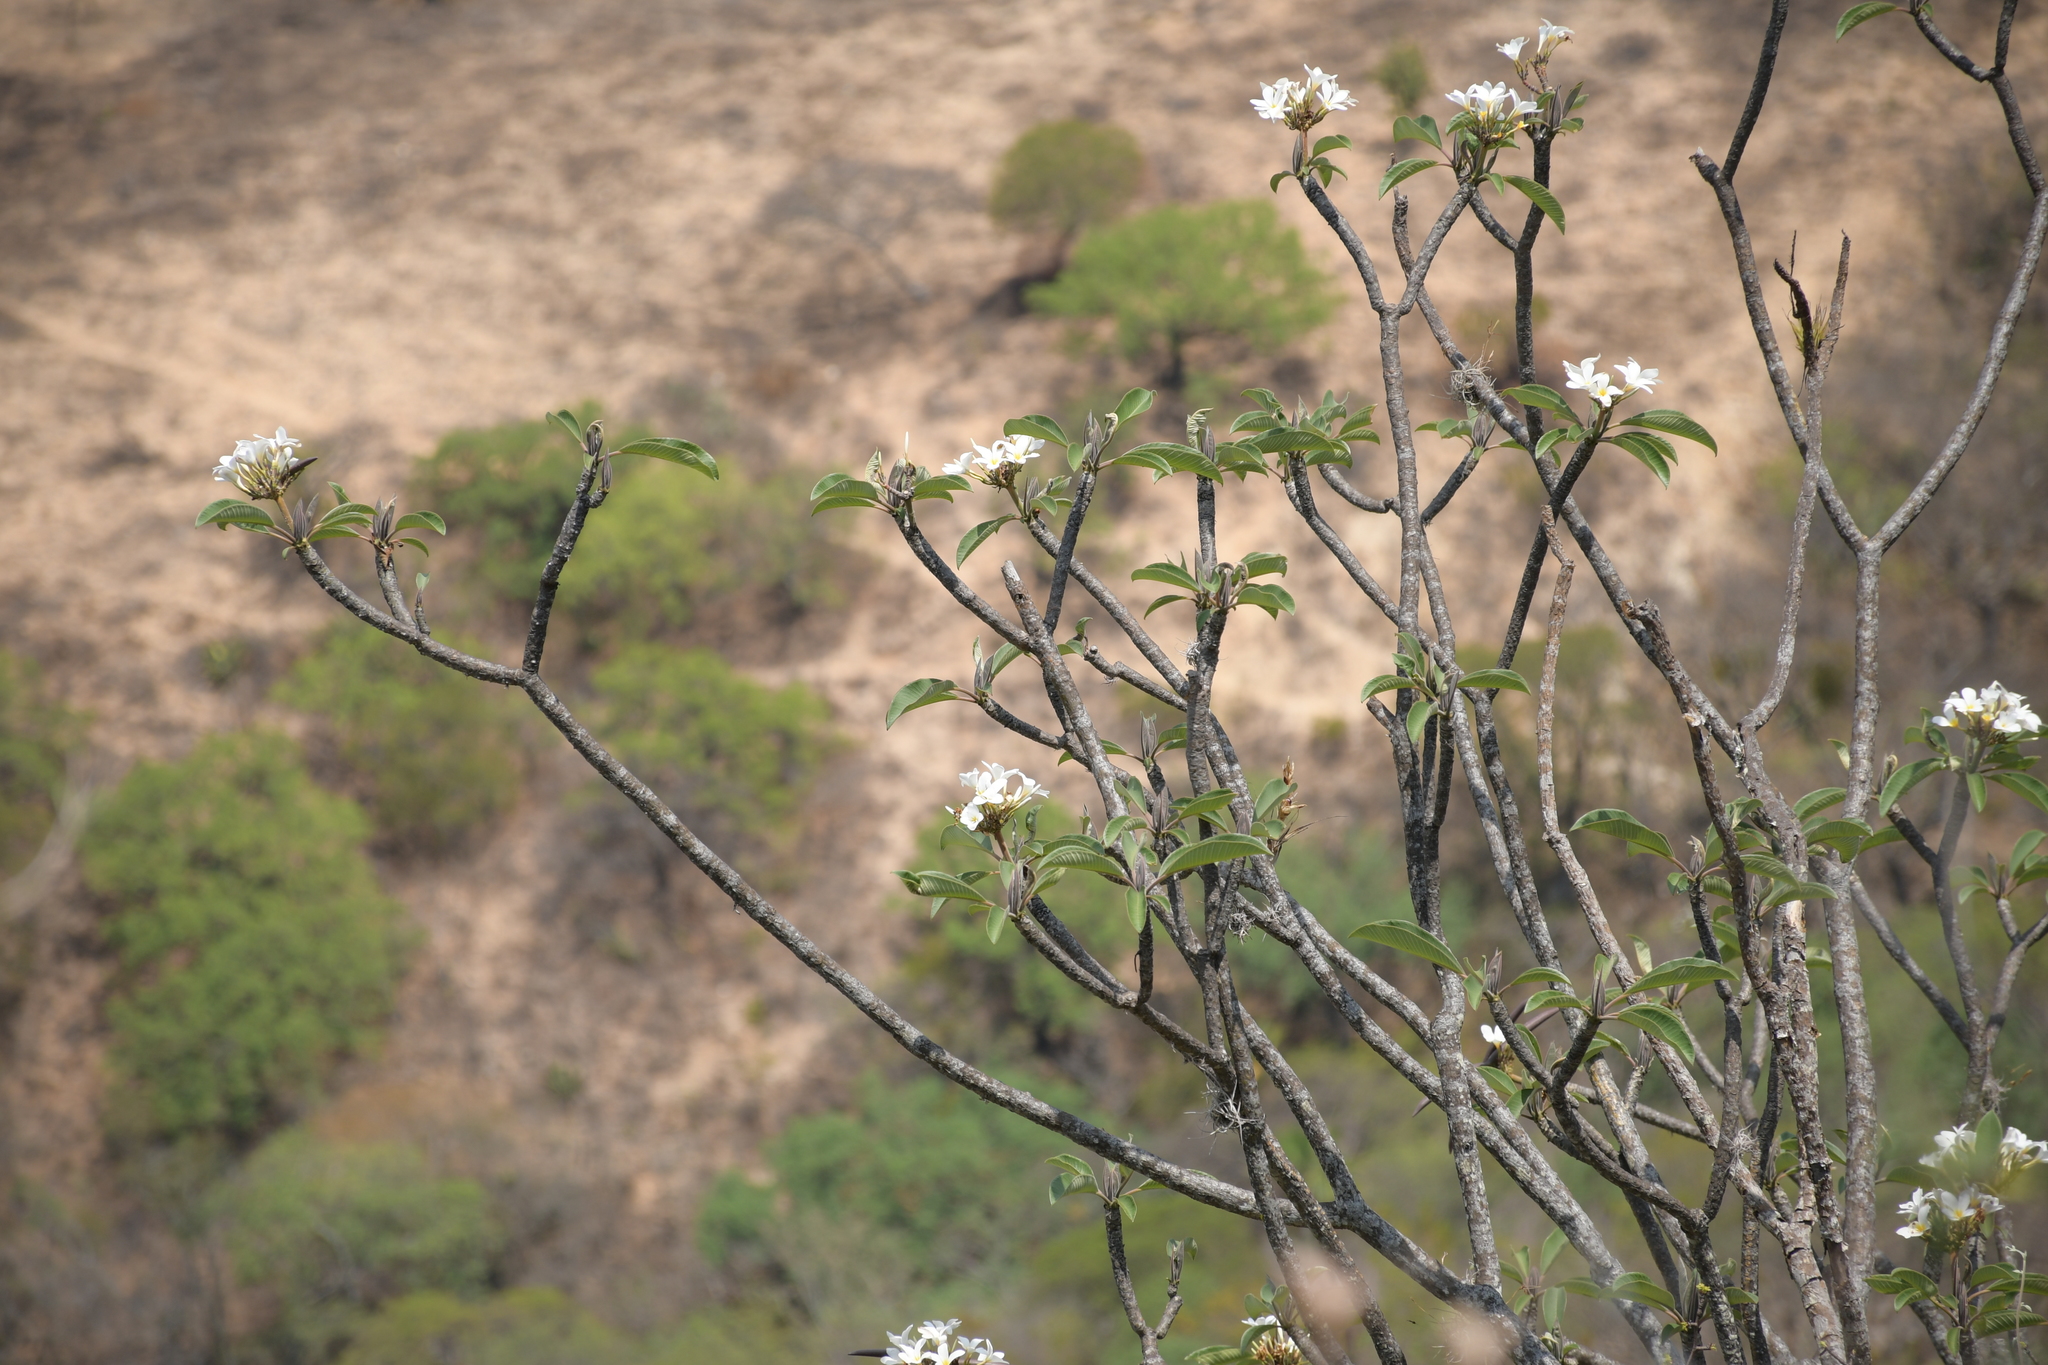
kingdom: Plantae
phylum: Tracheophyta
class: Magnoliopsida
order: Gentianales
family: Apocynaceae
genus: Plumeria
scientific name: Plumeria rubra
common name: Pagoda-tree
